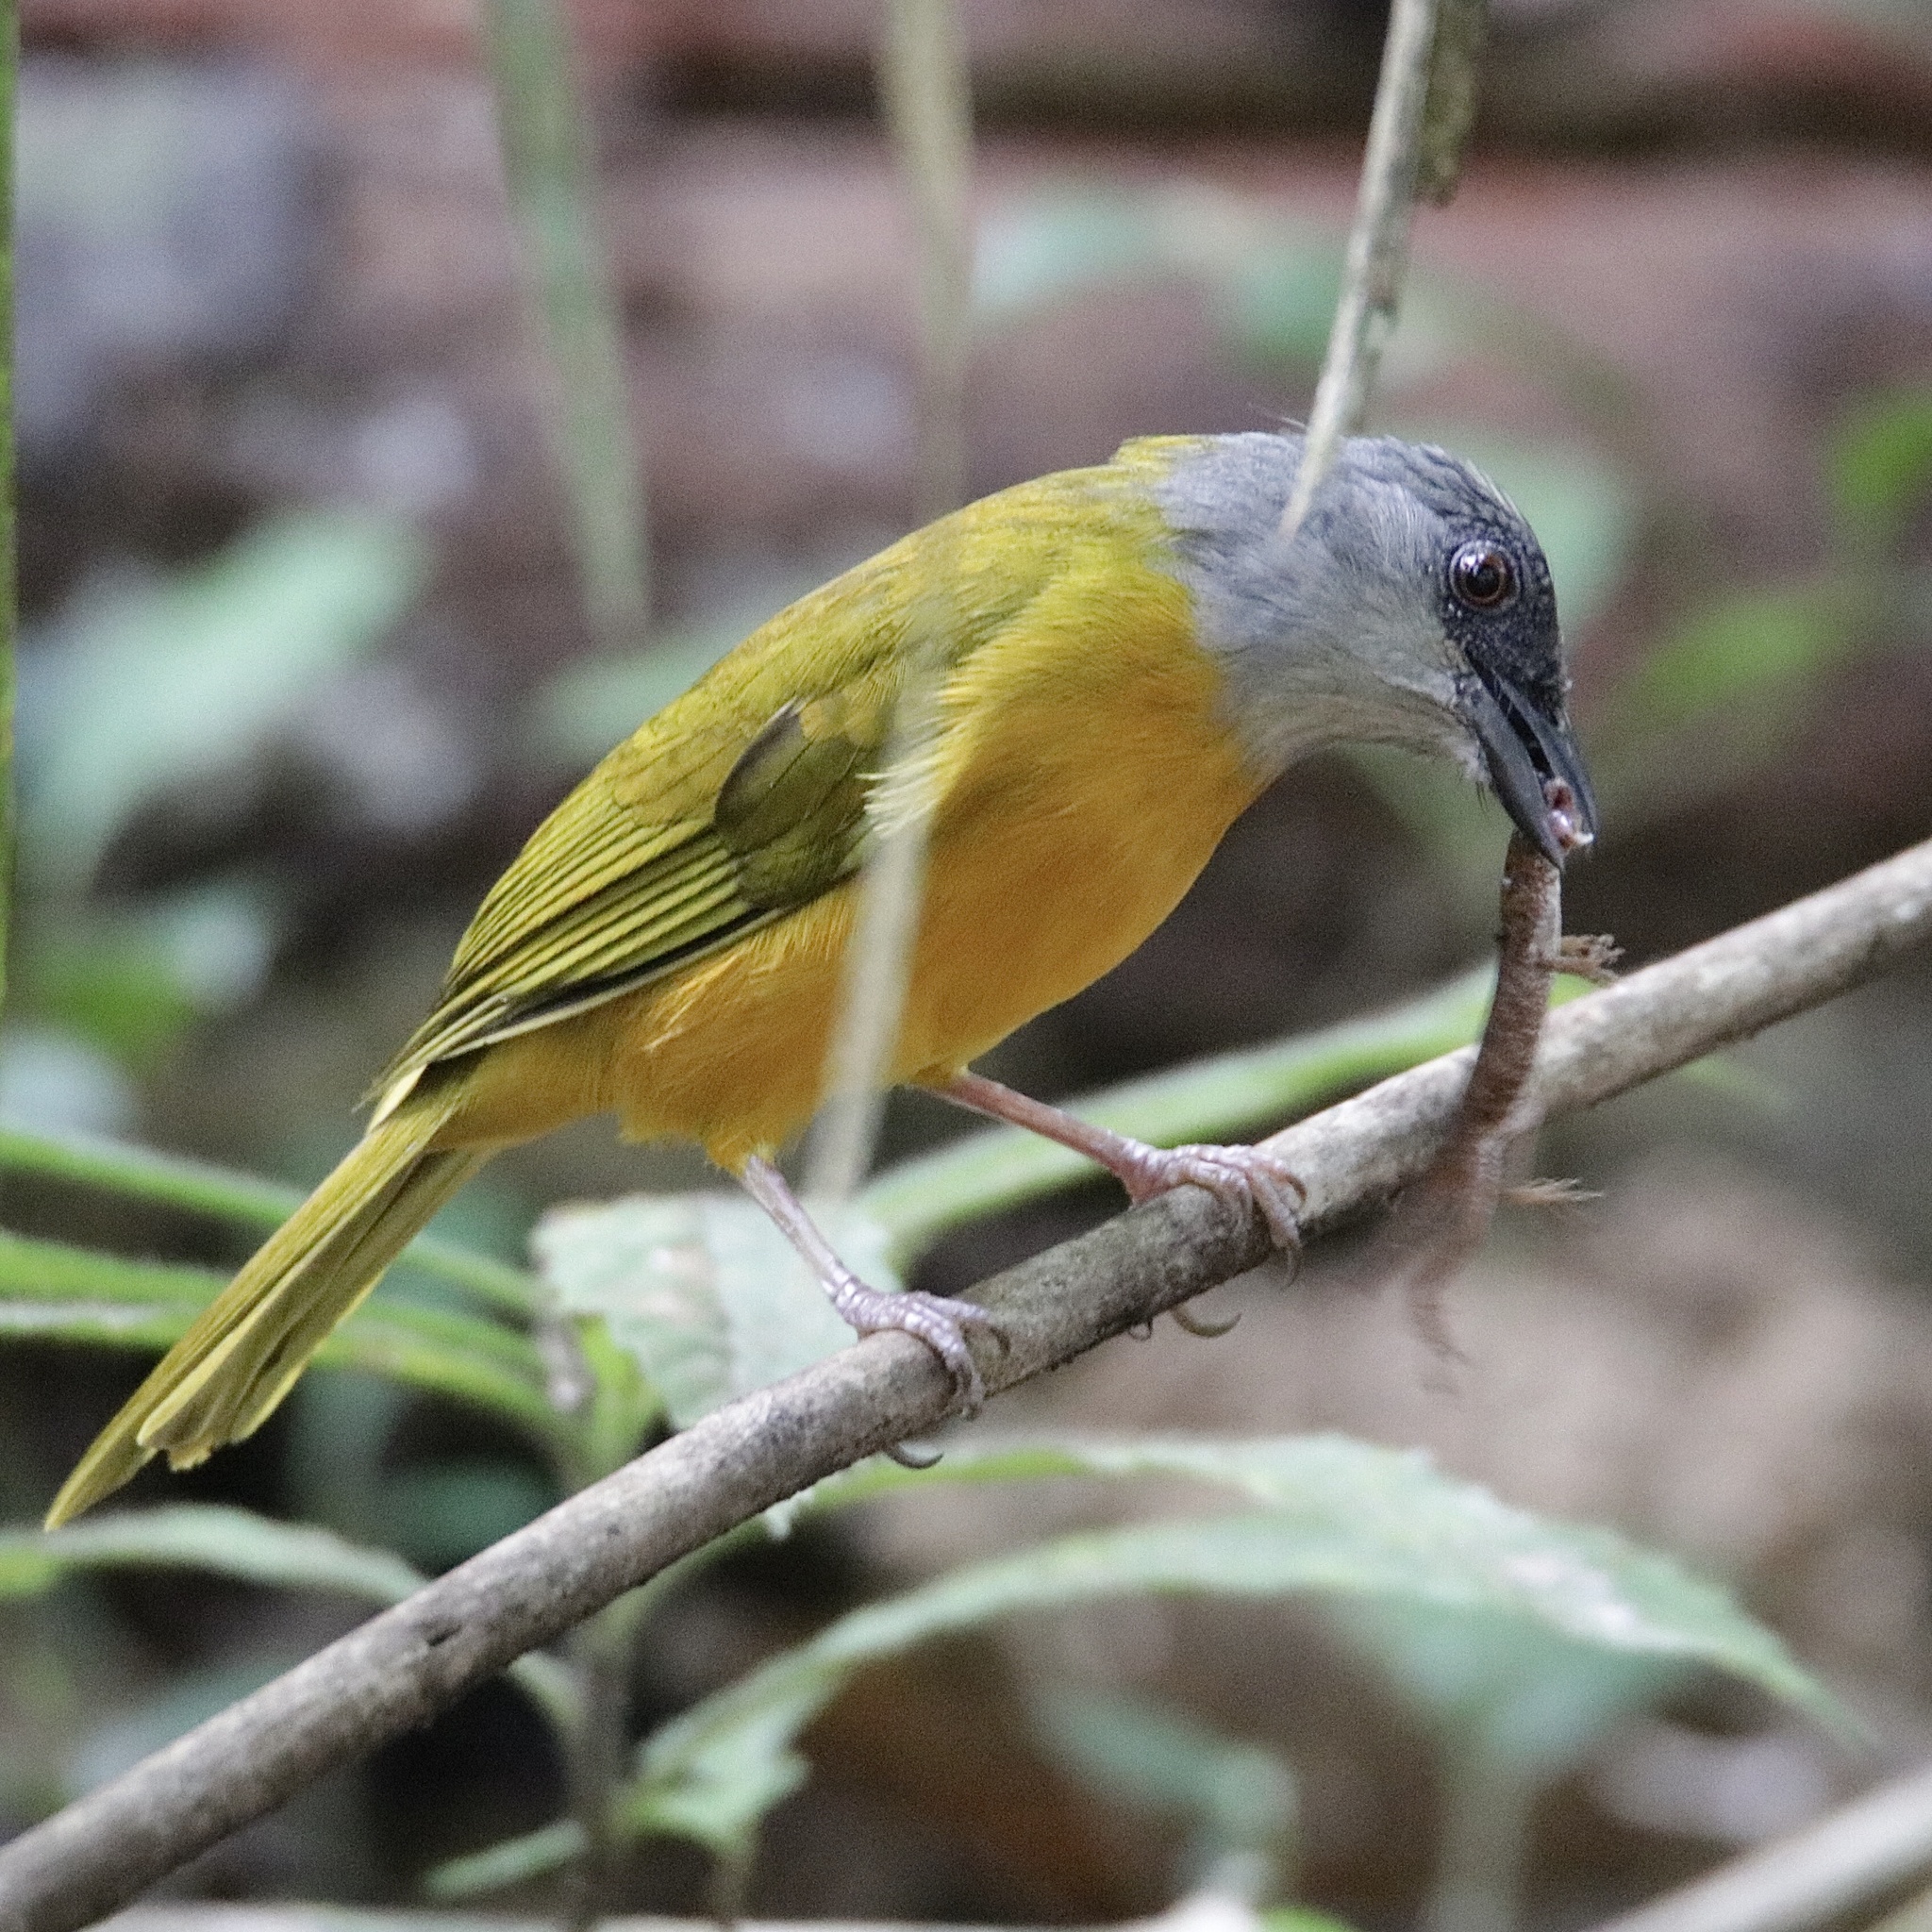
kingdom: Animalia
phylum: Chordata
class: Aves
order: Passeriformes
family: Thraupidae
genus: Eucometis
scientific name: Eucometis penicillata
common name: Grey-headed tanager
